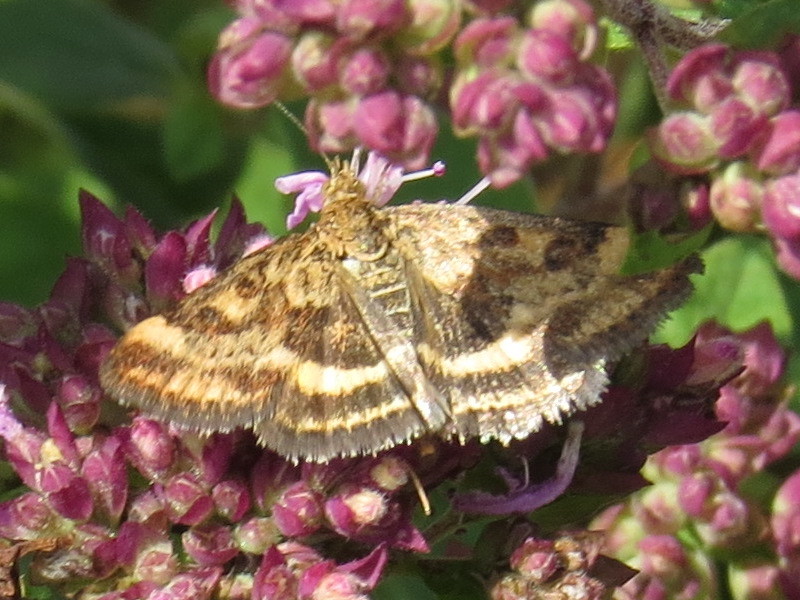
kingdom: Animalia
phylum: Arthropoda
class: Insecta
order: Lepidoptera
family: Crambidae
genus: Pyrausta
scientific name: Pyrausta despicata
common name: Straw-barred pearl
